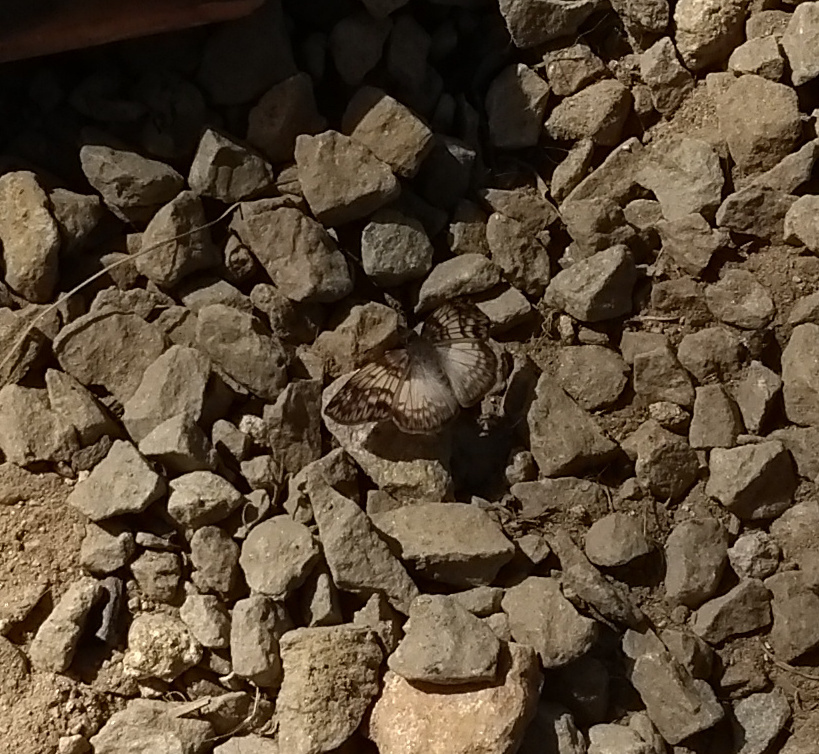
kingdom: Animalia
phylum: Arthropoda
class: Insecta
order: Lepidoptera
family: Hesperiidae
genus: Mylon
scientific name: Mylon maimon
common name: Common mylon
